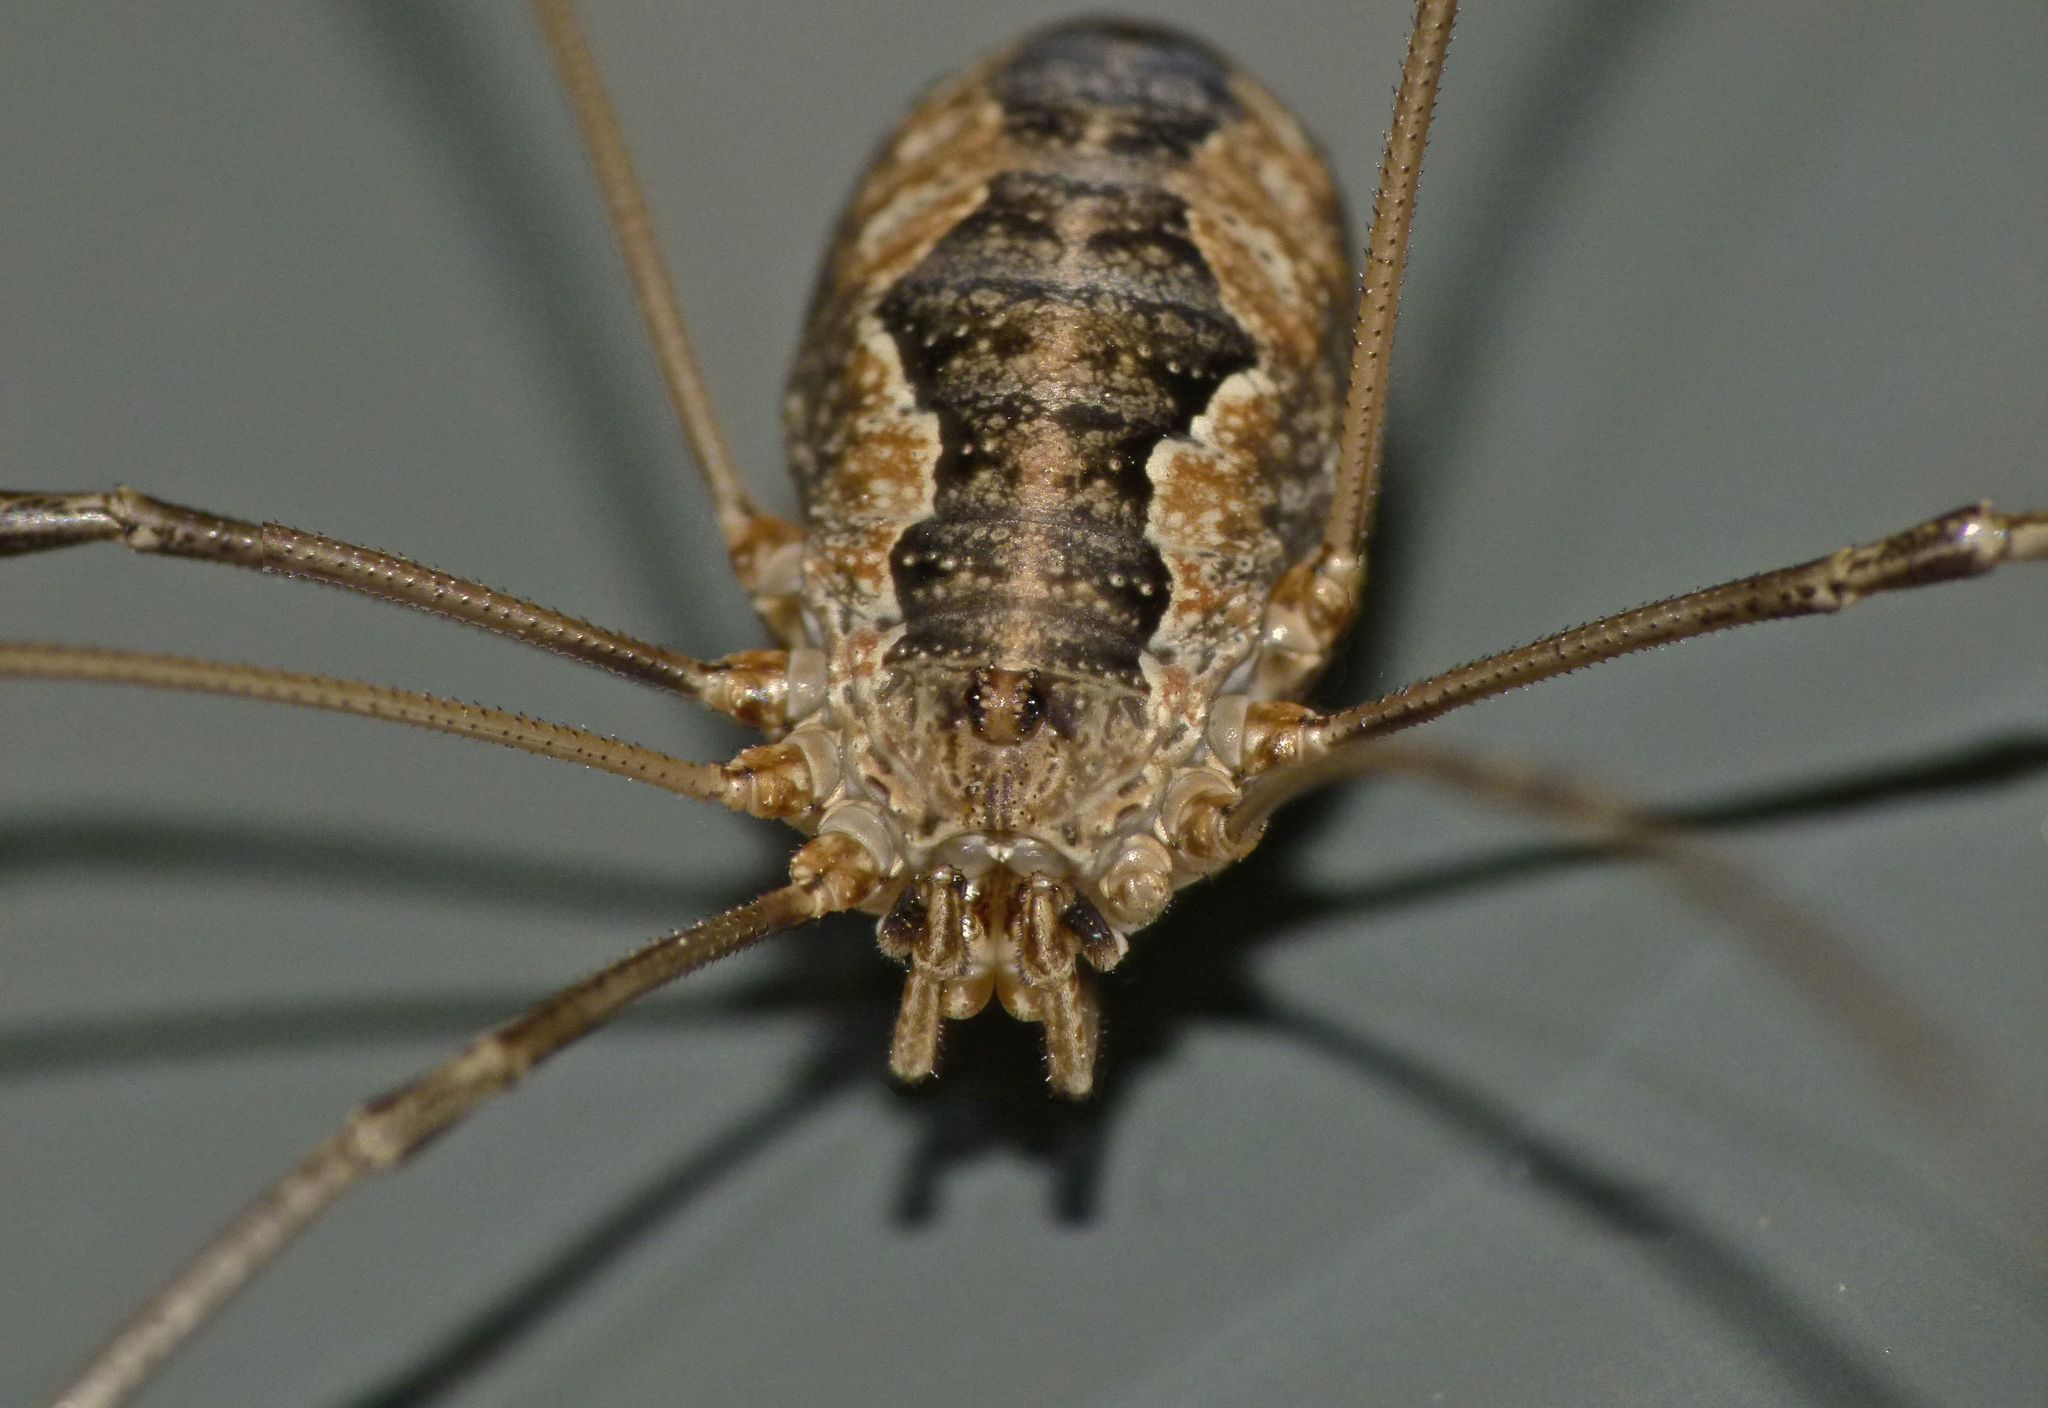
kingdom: Animalia
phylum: Arthropoda
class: Arachnida
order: Opiliones
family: Phalangiidae
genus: Phalangium
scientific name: Phalangium opilio
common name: Daddy longleg
